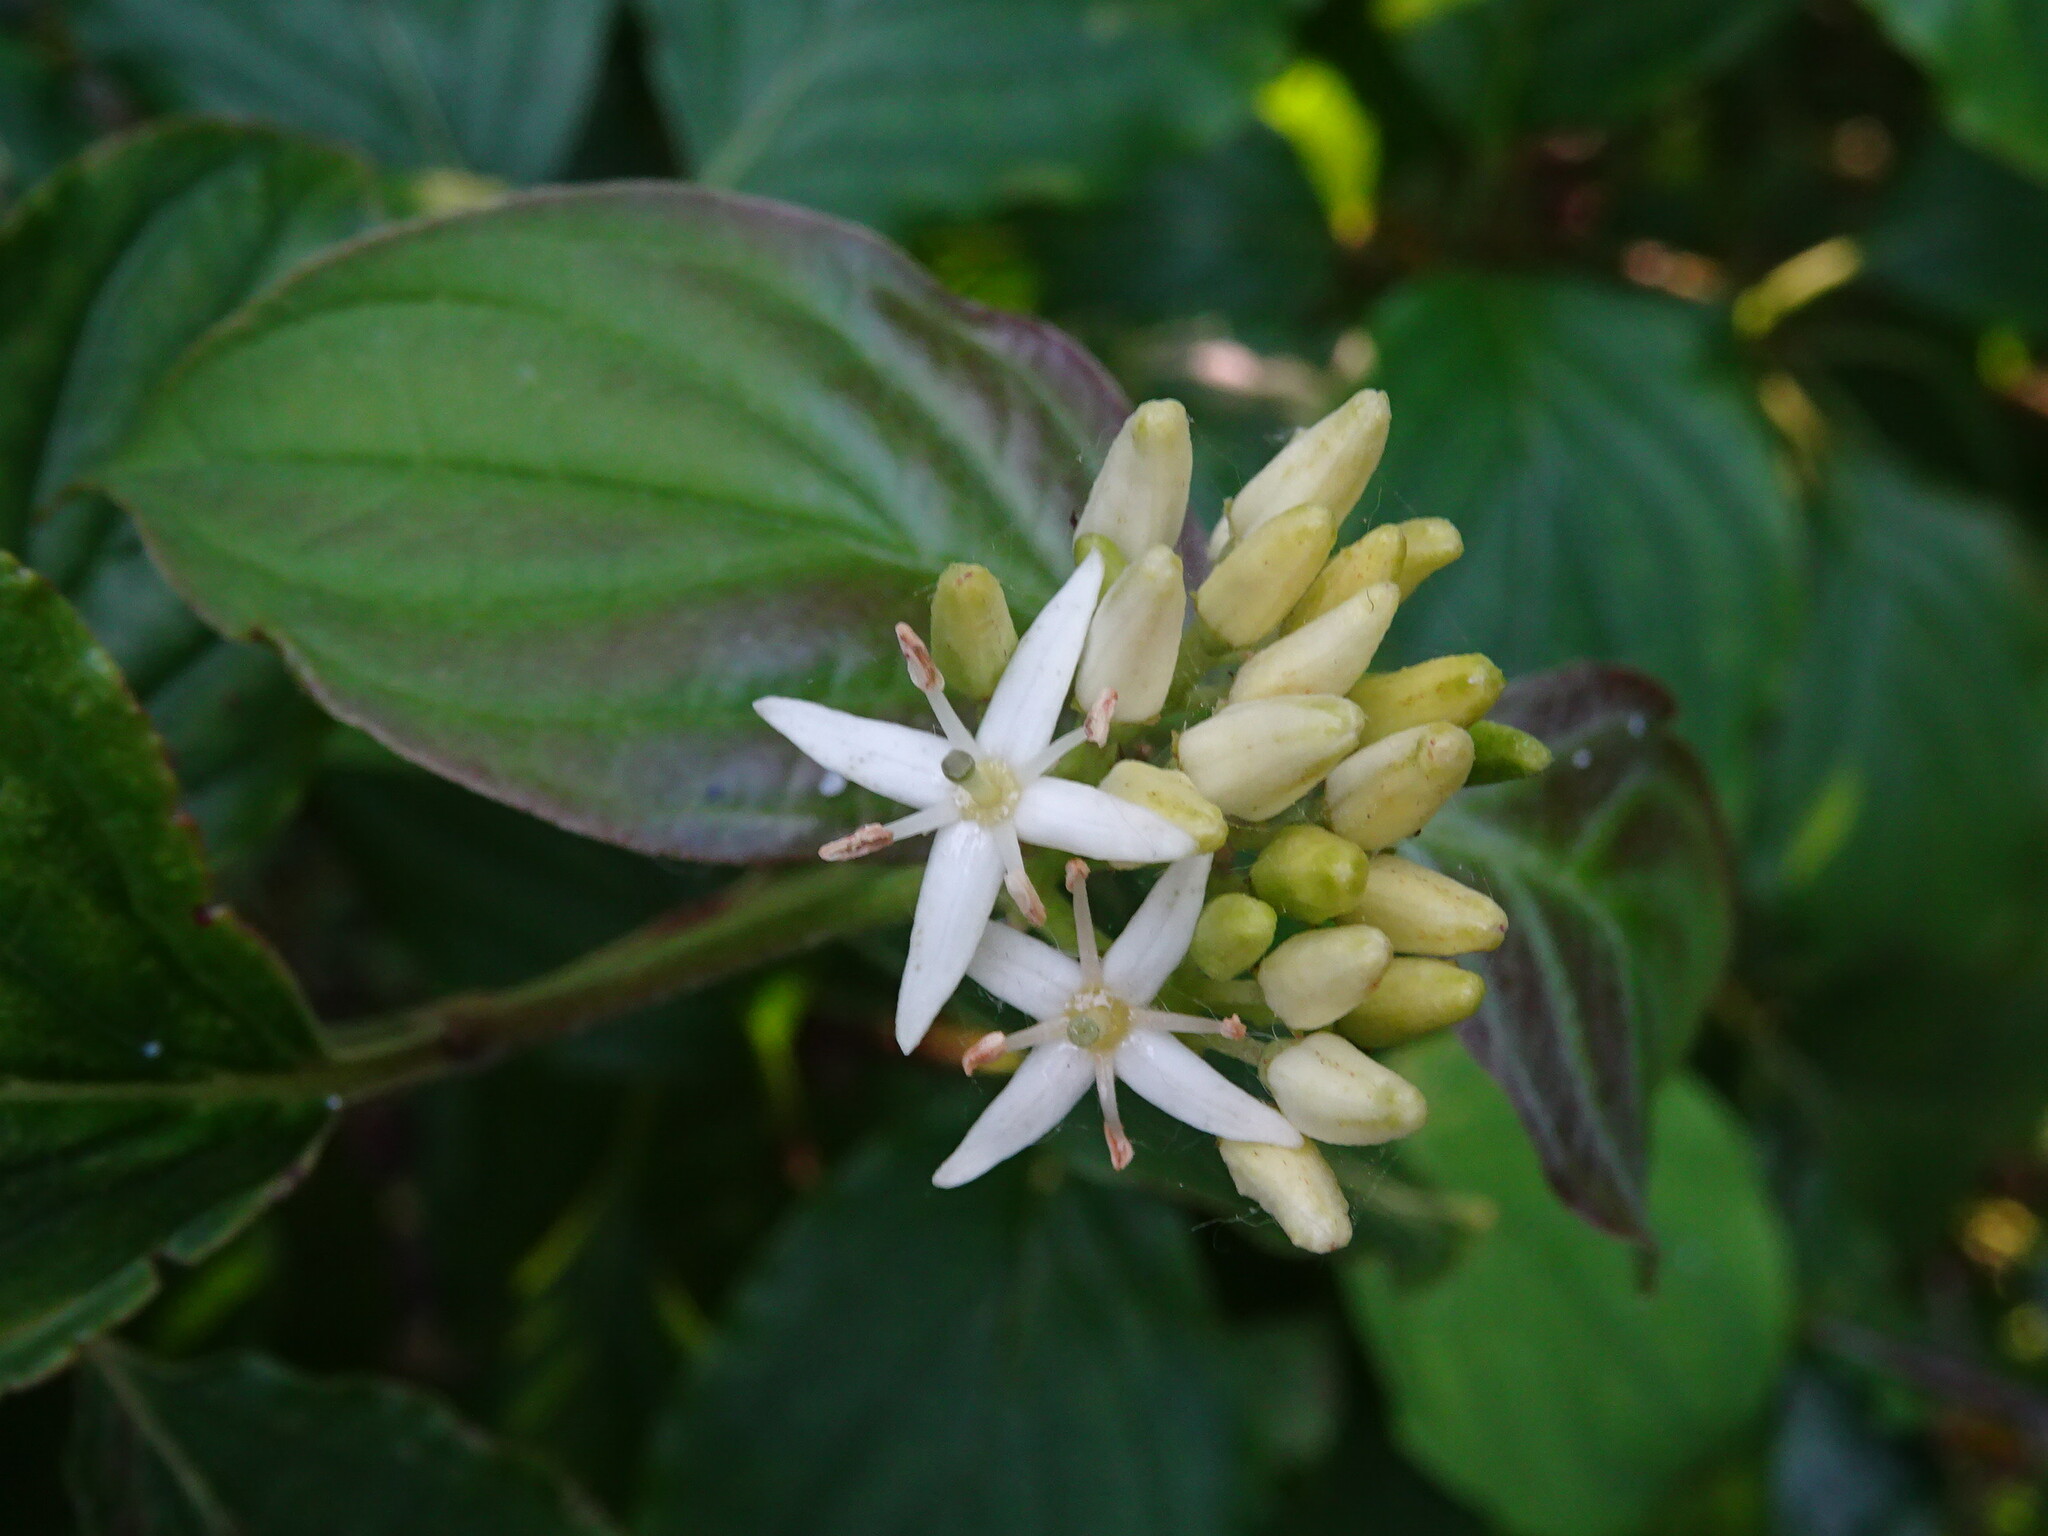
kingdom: Plantae
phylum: Tracheophyta
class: Magnoliopsida
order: Cornales
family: Cornaceae
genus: Cornus
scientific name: Cornus sanguinea
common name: Dogwood
